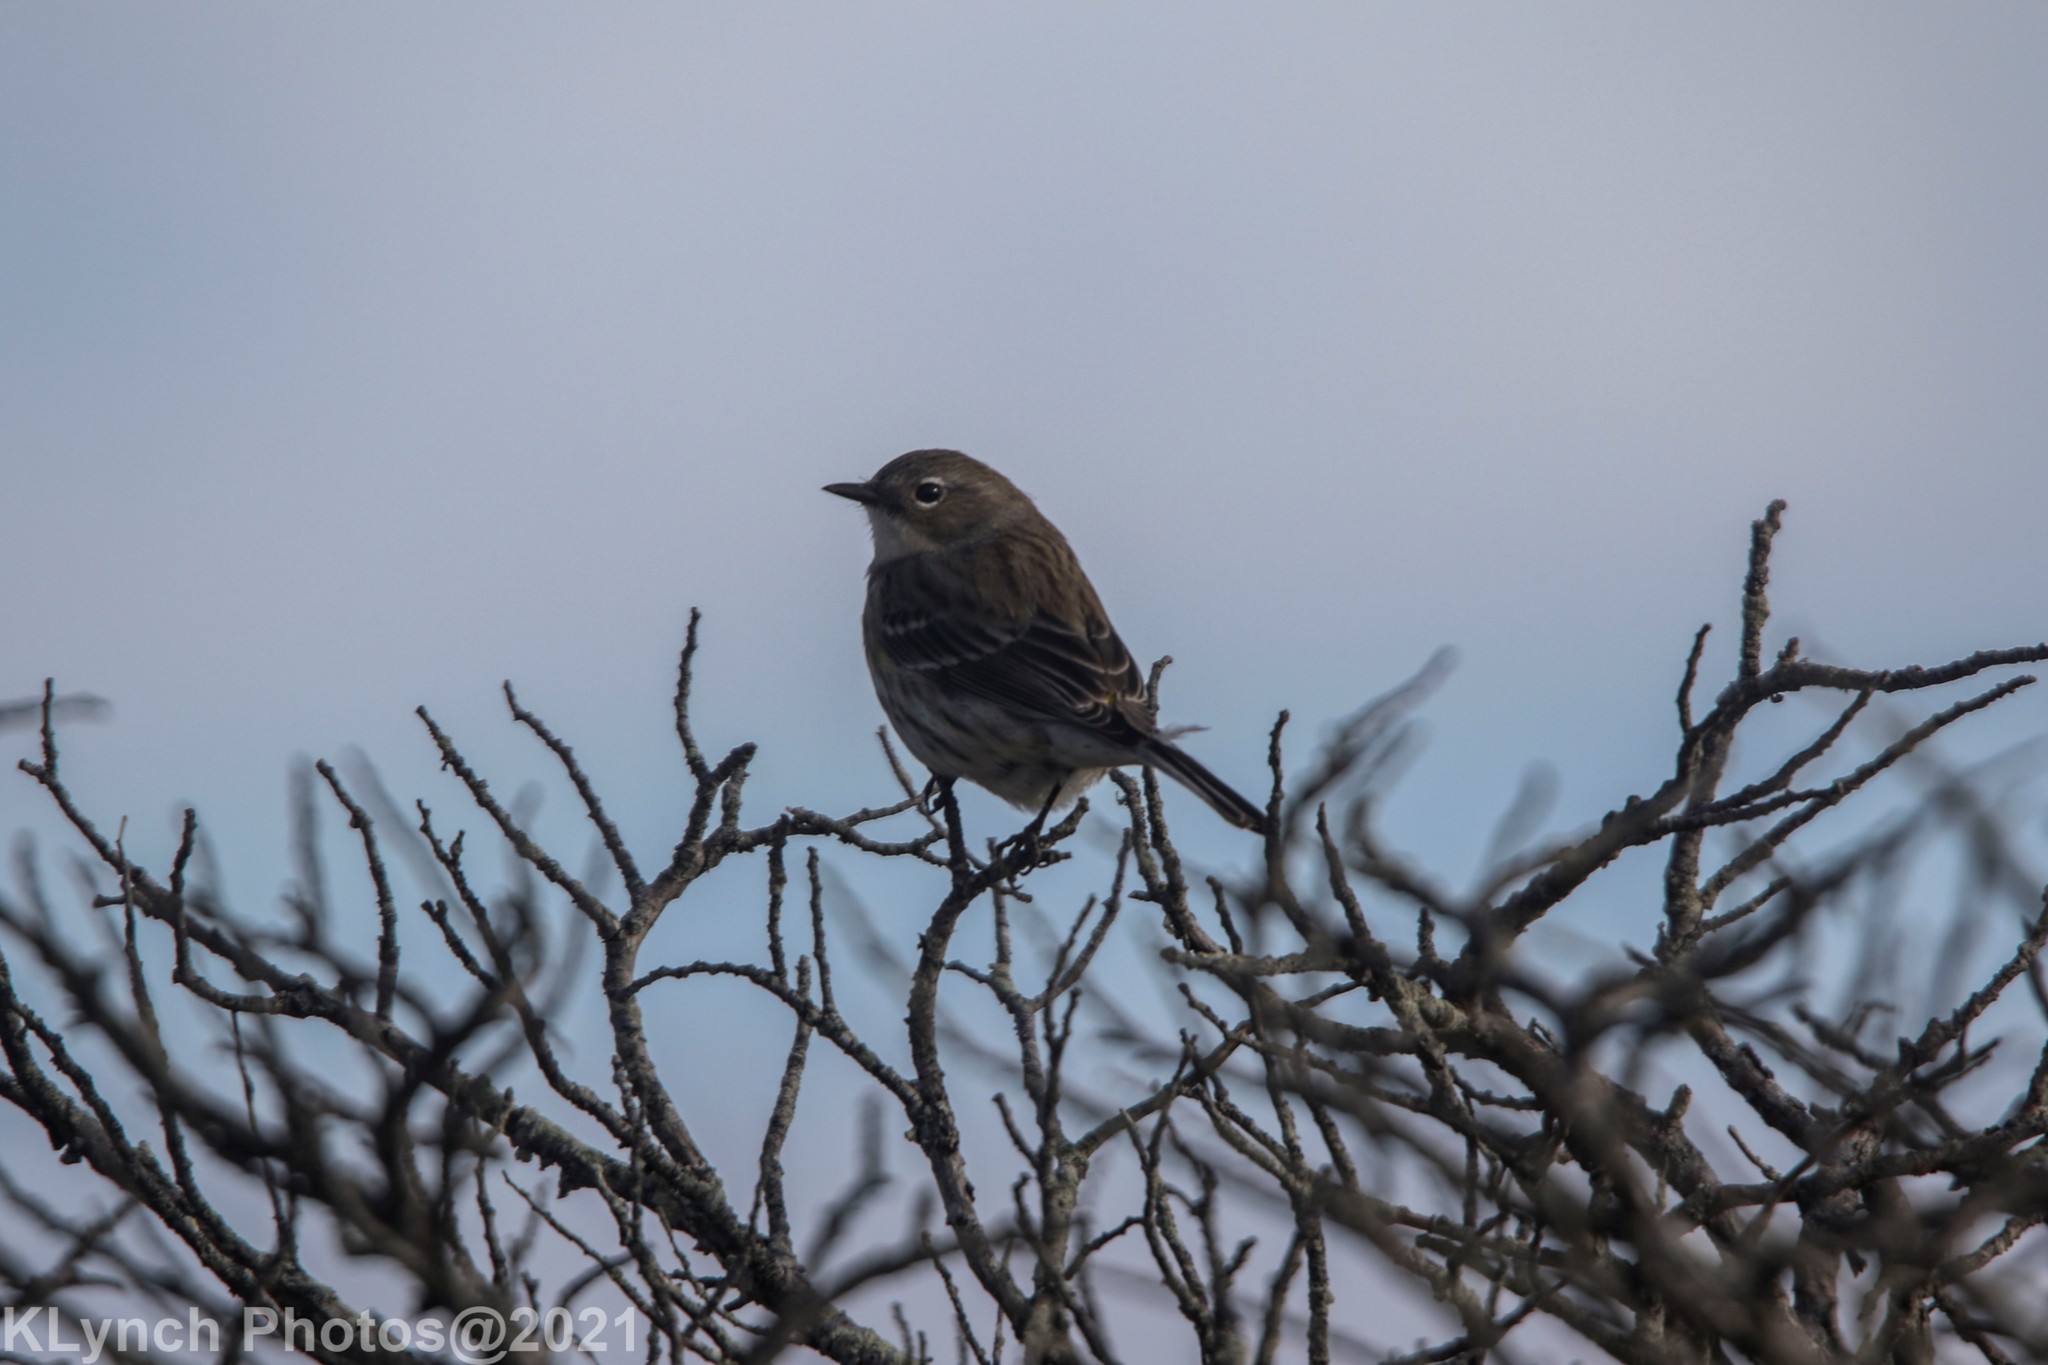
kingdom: Animalia
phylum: Chordata
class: Aves
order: Passeriformes
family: Parulidae
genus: Setophaga
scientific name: Setophaga coronata
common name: Myrtle warbler
